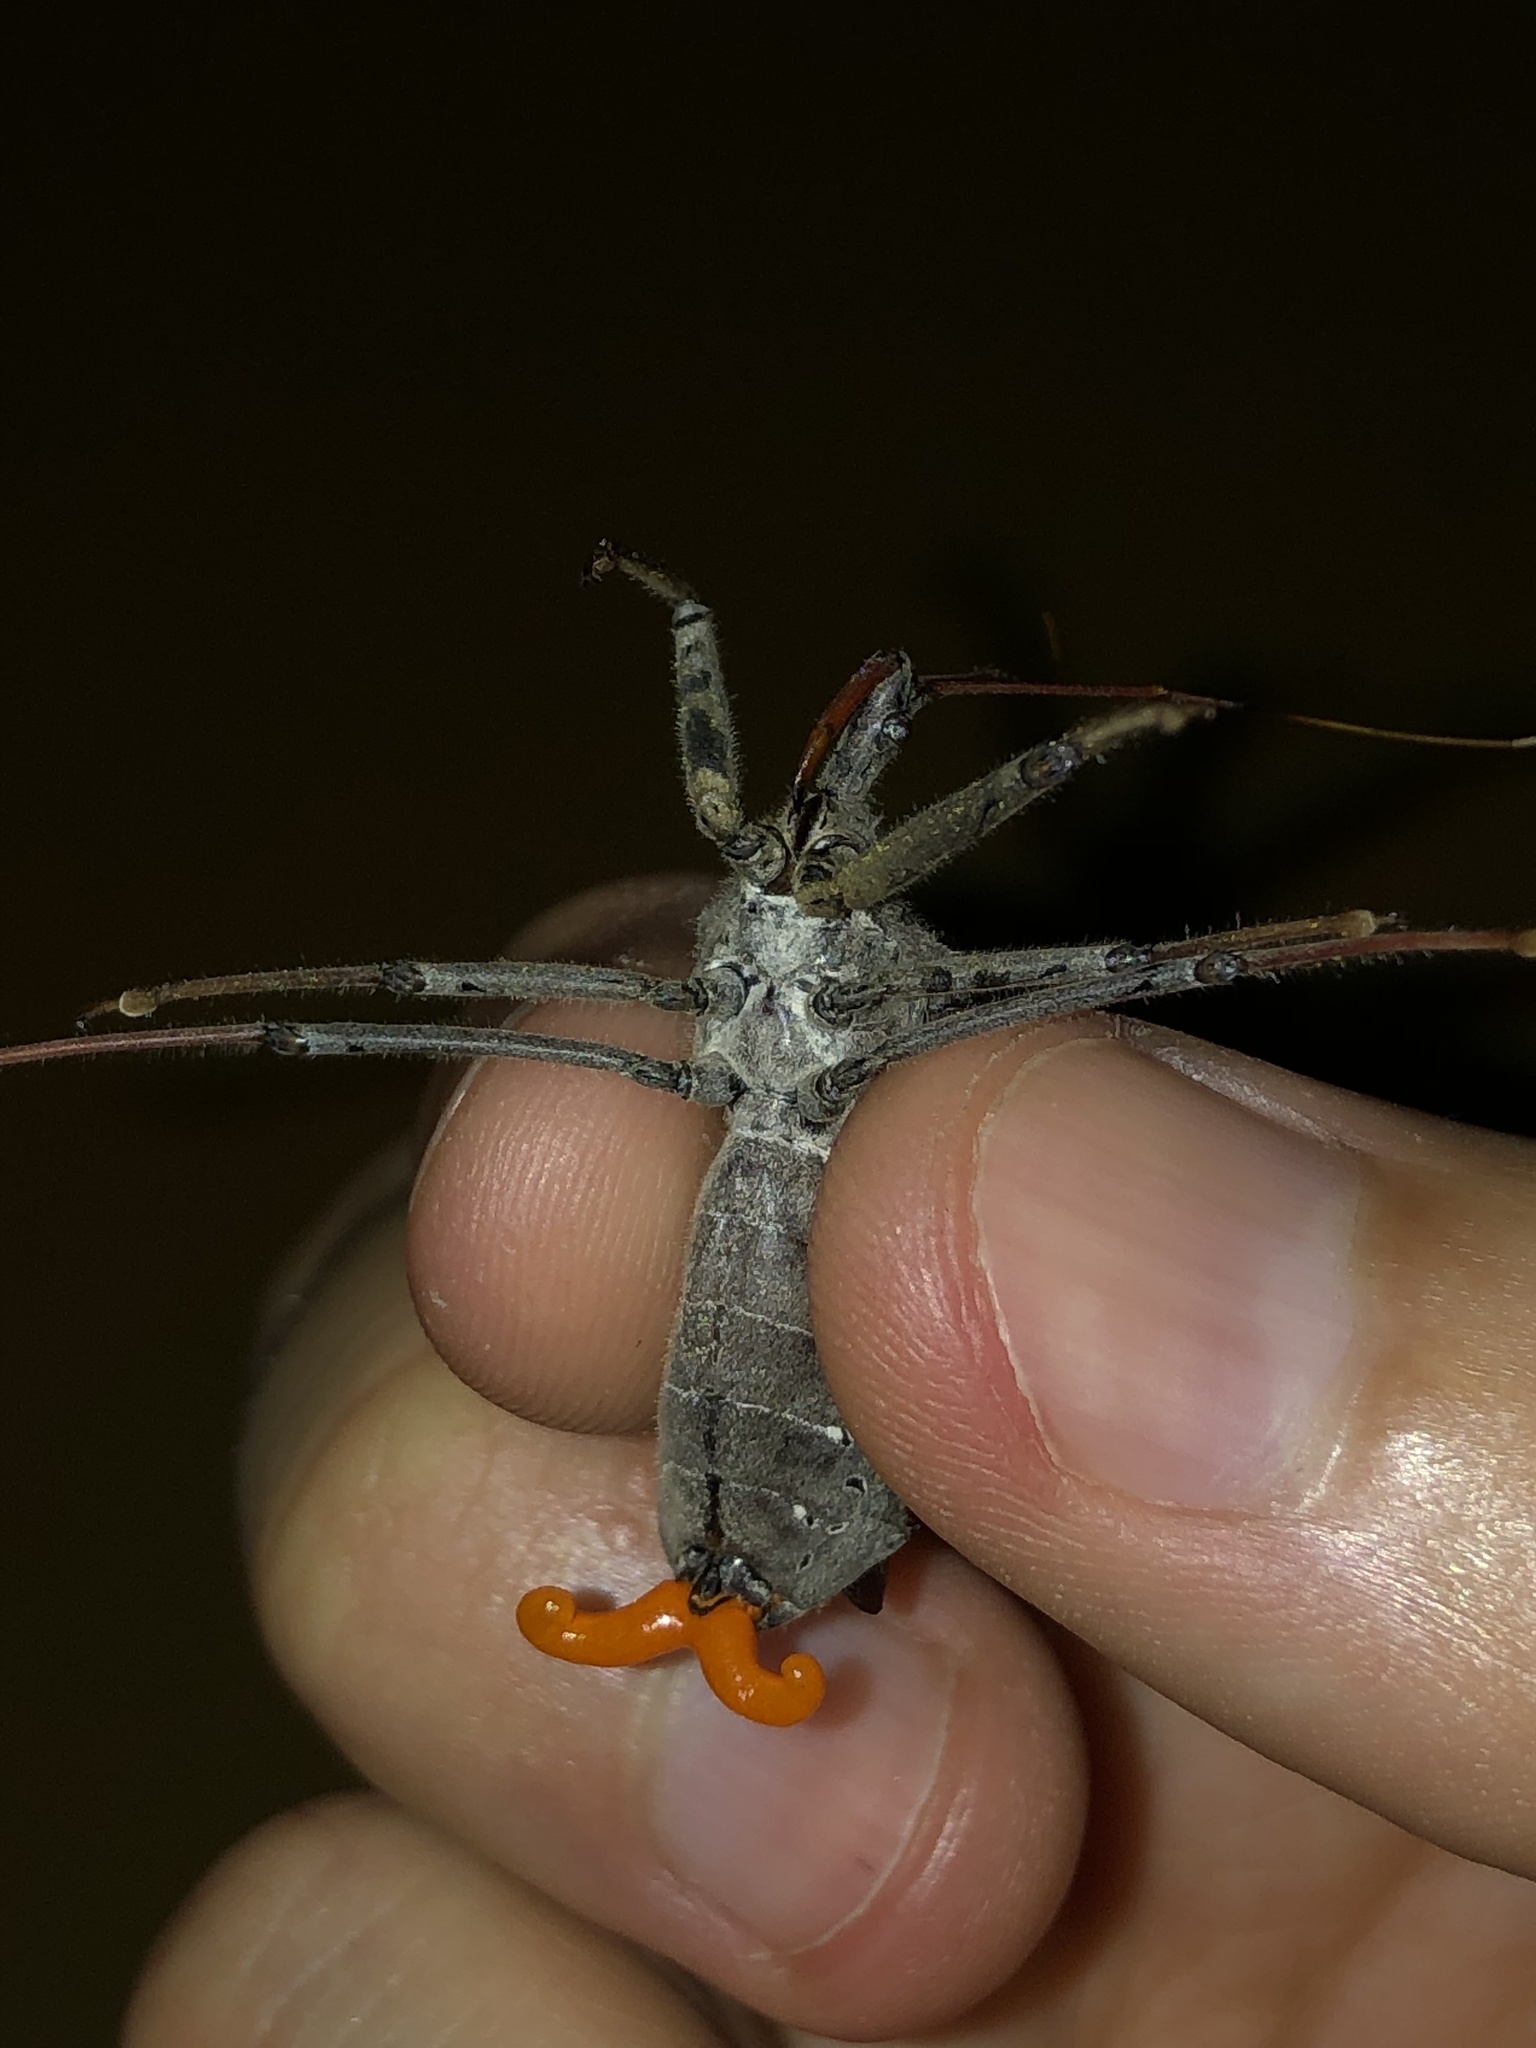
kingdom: Animalia
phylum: Arthropoda
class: Insecta
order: Hemiptera
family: Reduviidae
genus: Arilus
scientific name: Arilus cristatus
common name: North american wheel bug
